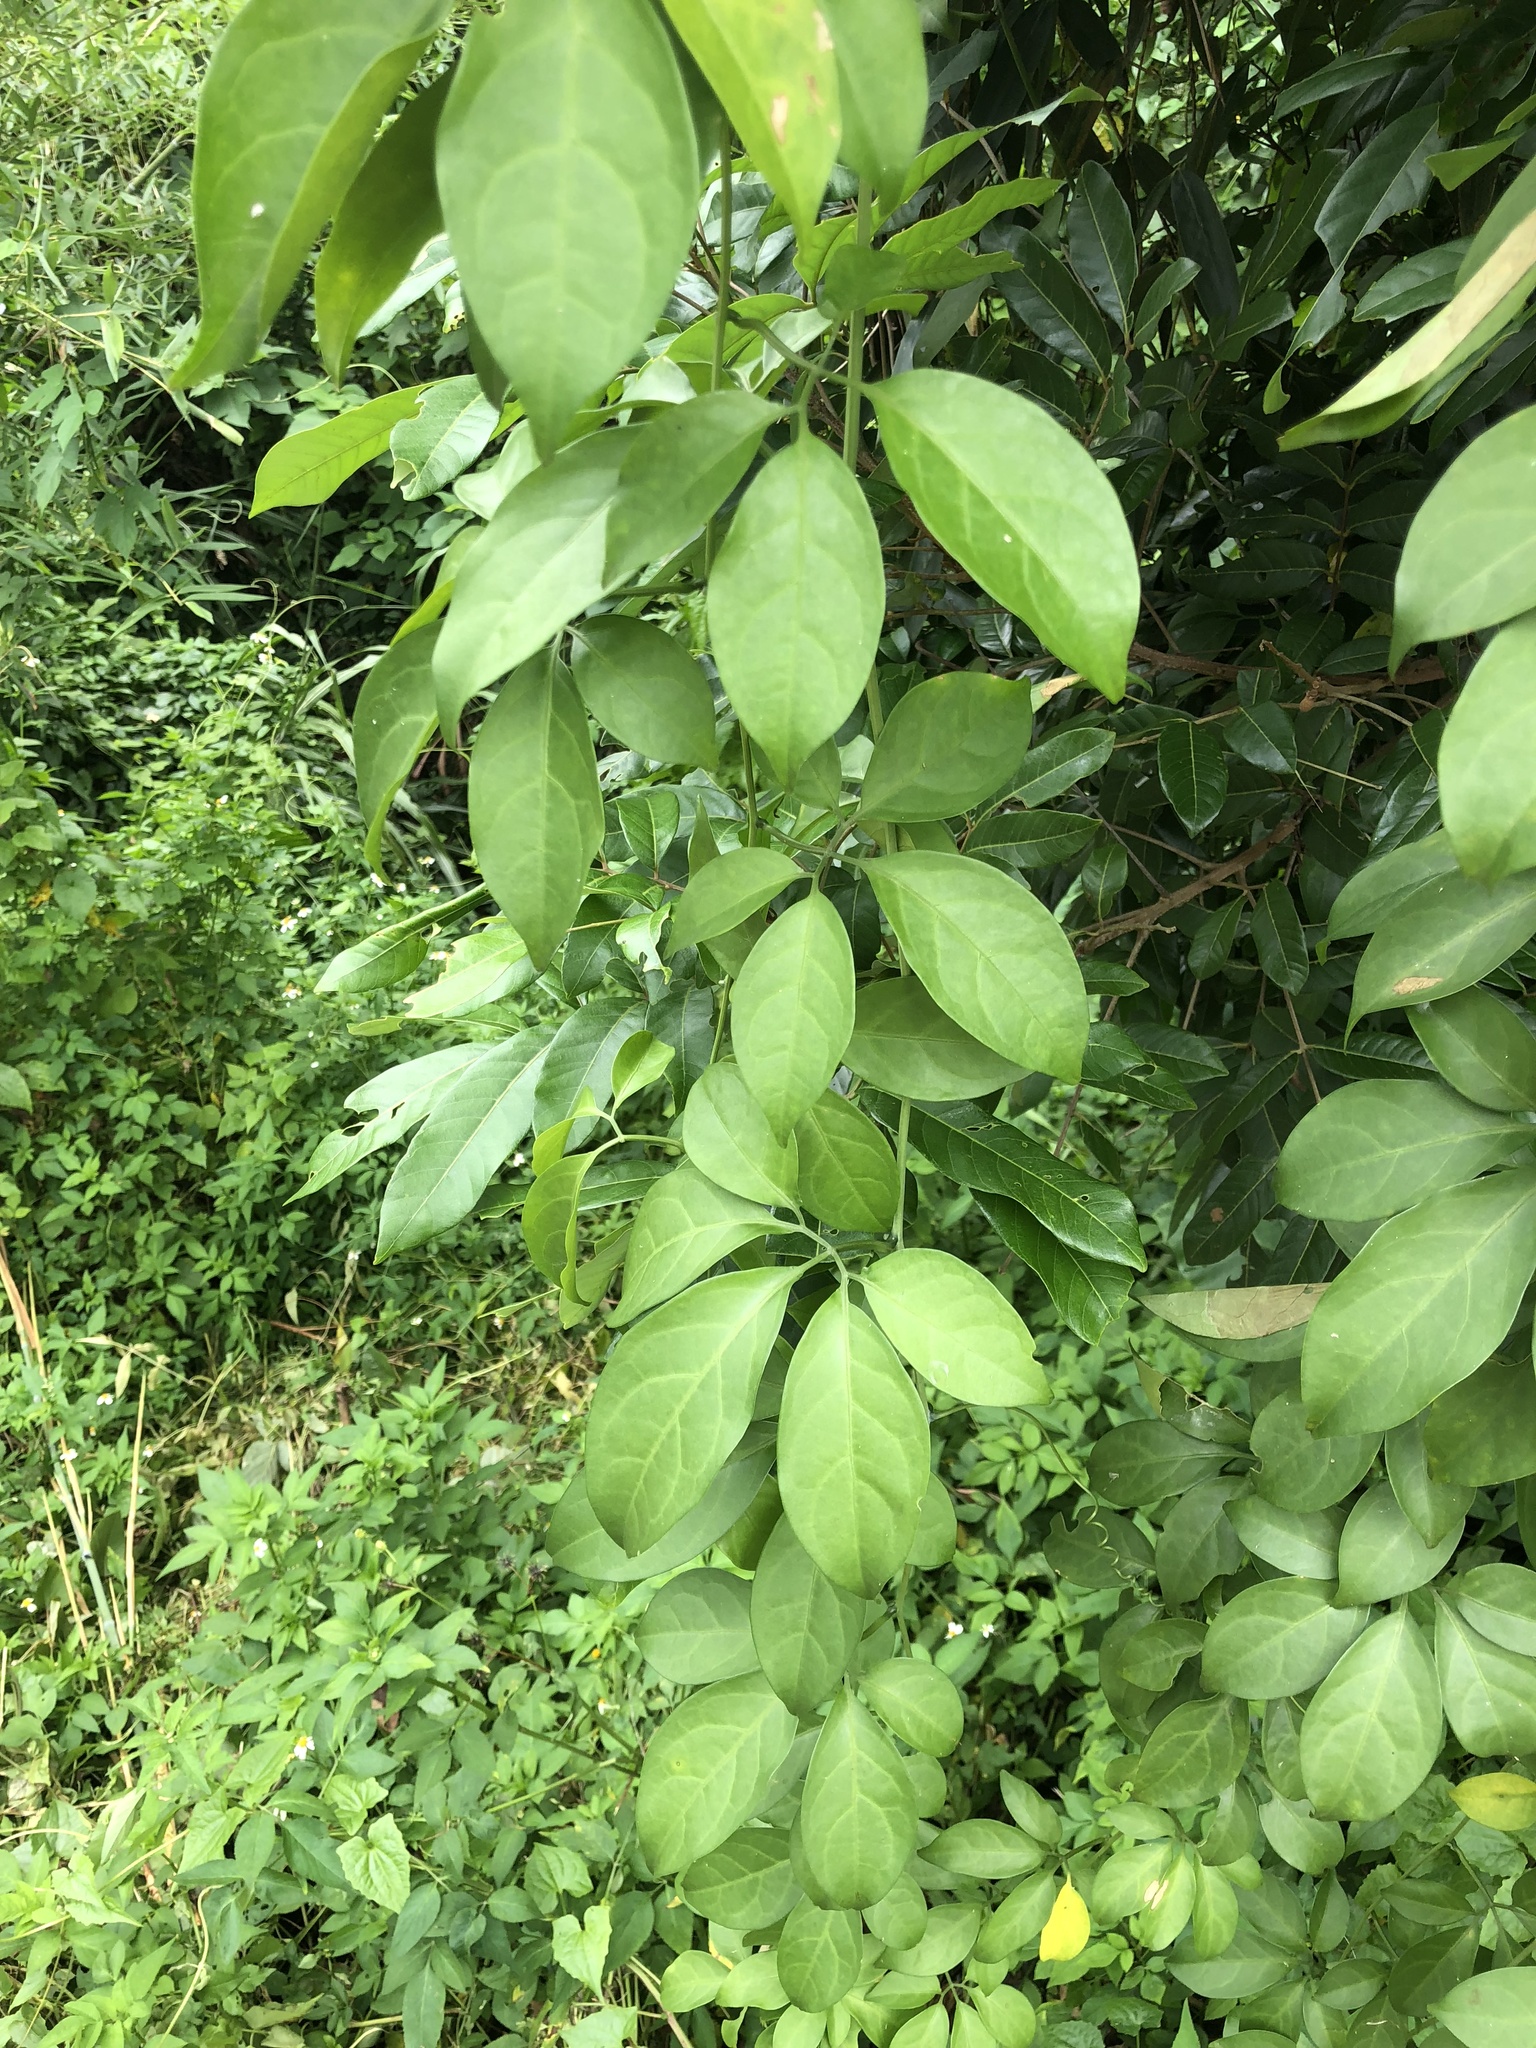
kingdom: Plantae
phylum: Tracheophyta
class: Magnoliopsida
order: Cucurbitales
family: Cucurbitaceae
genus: Neoalsomitra
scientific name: Neoalsomitra clavigera
